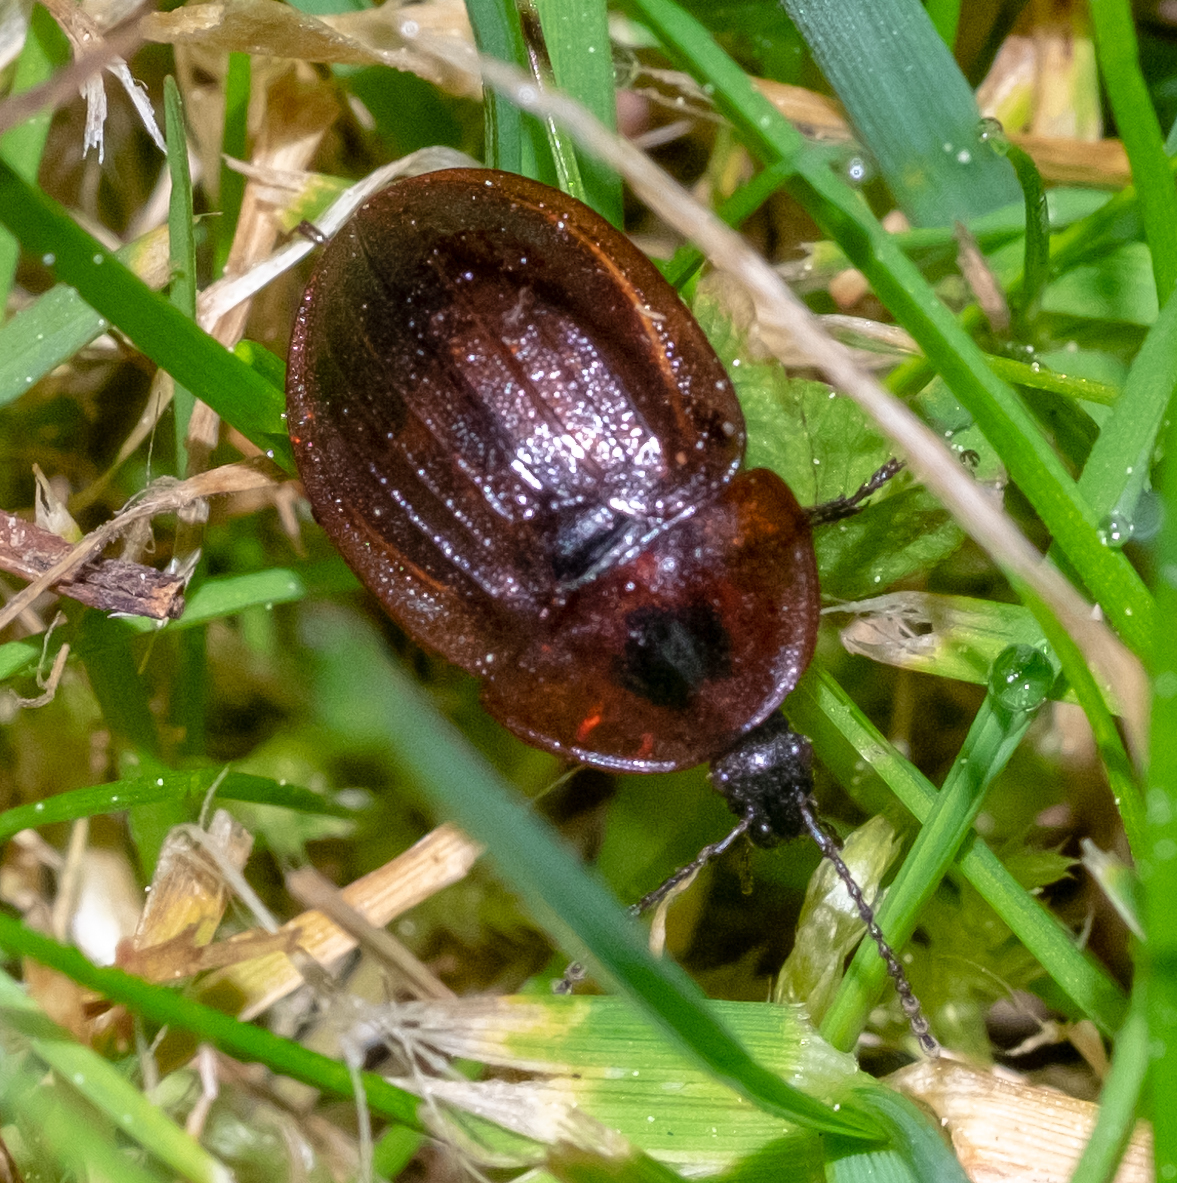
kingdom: Animalia
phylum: Arthropoda
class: Insecta
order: Coleoptera
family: Staphylinidae
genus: Silpha
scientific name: Silpha atrata
